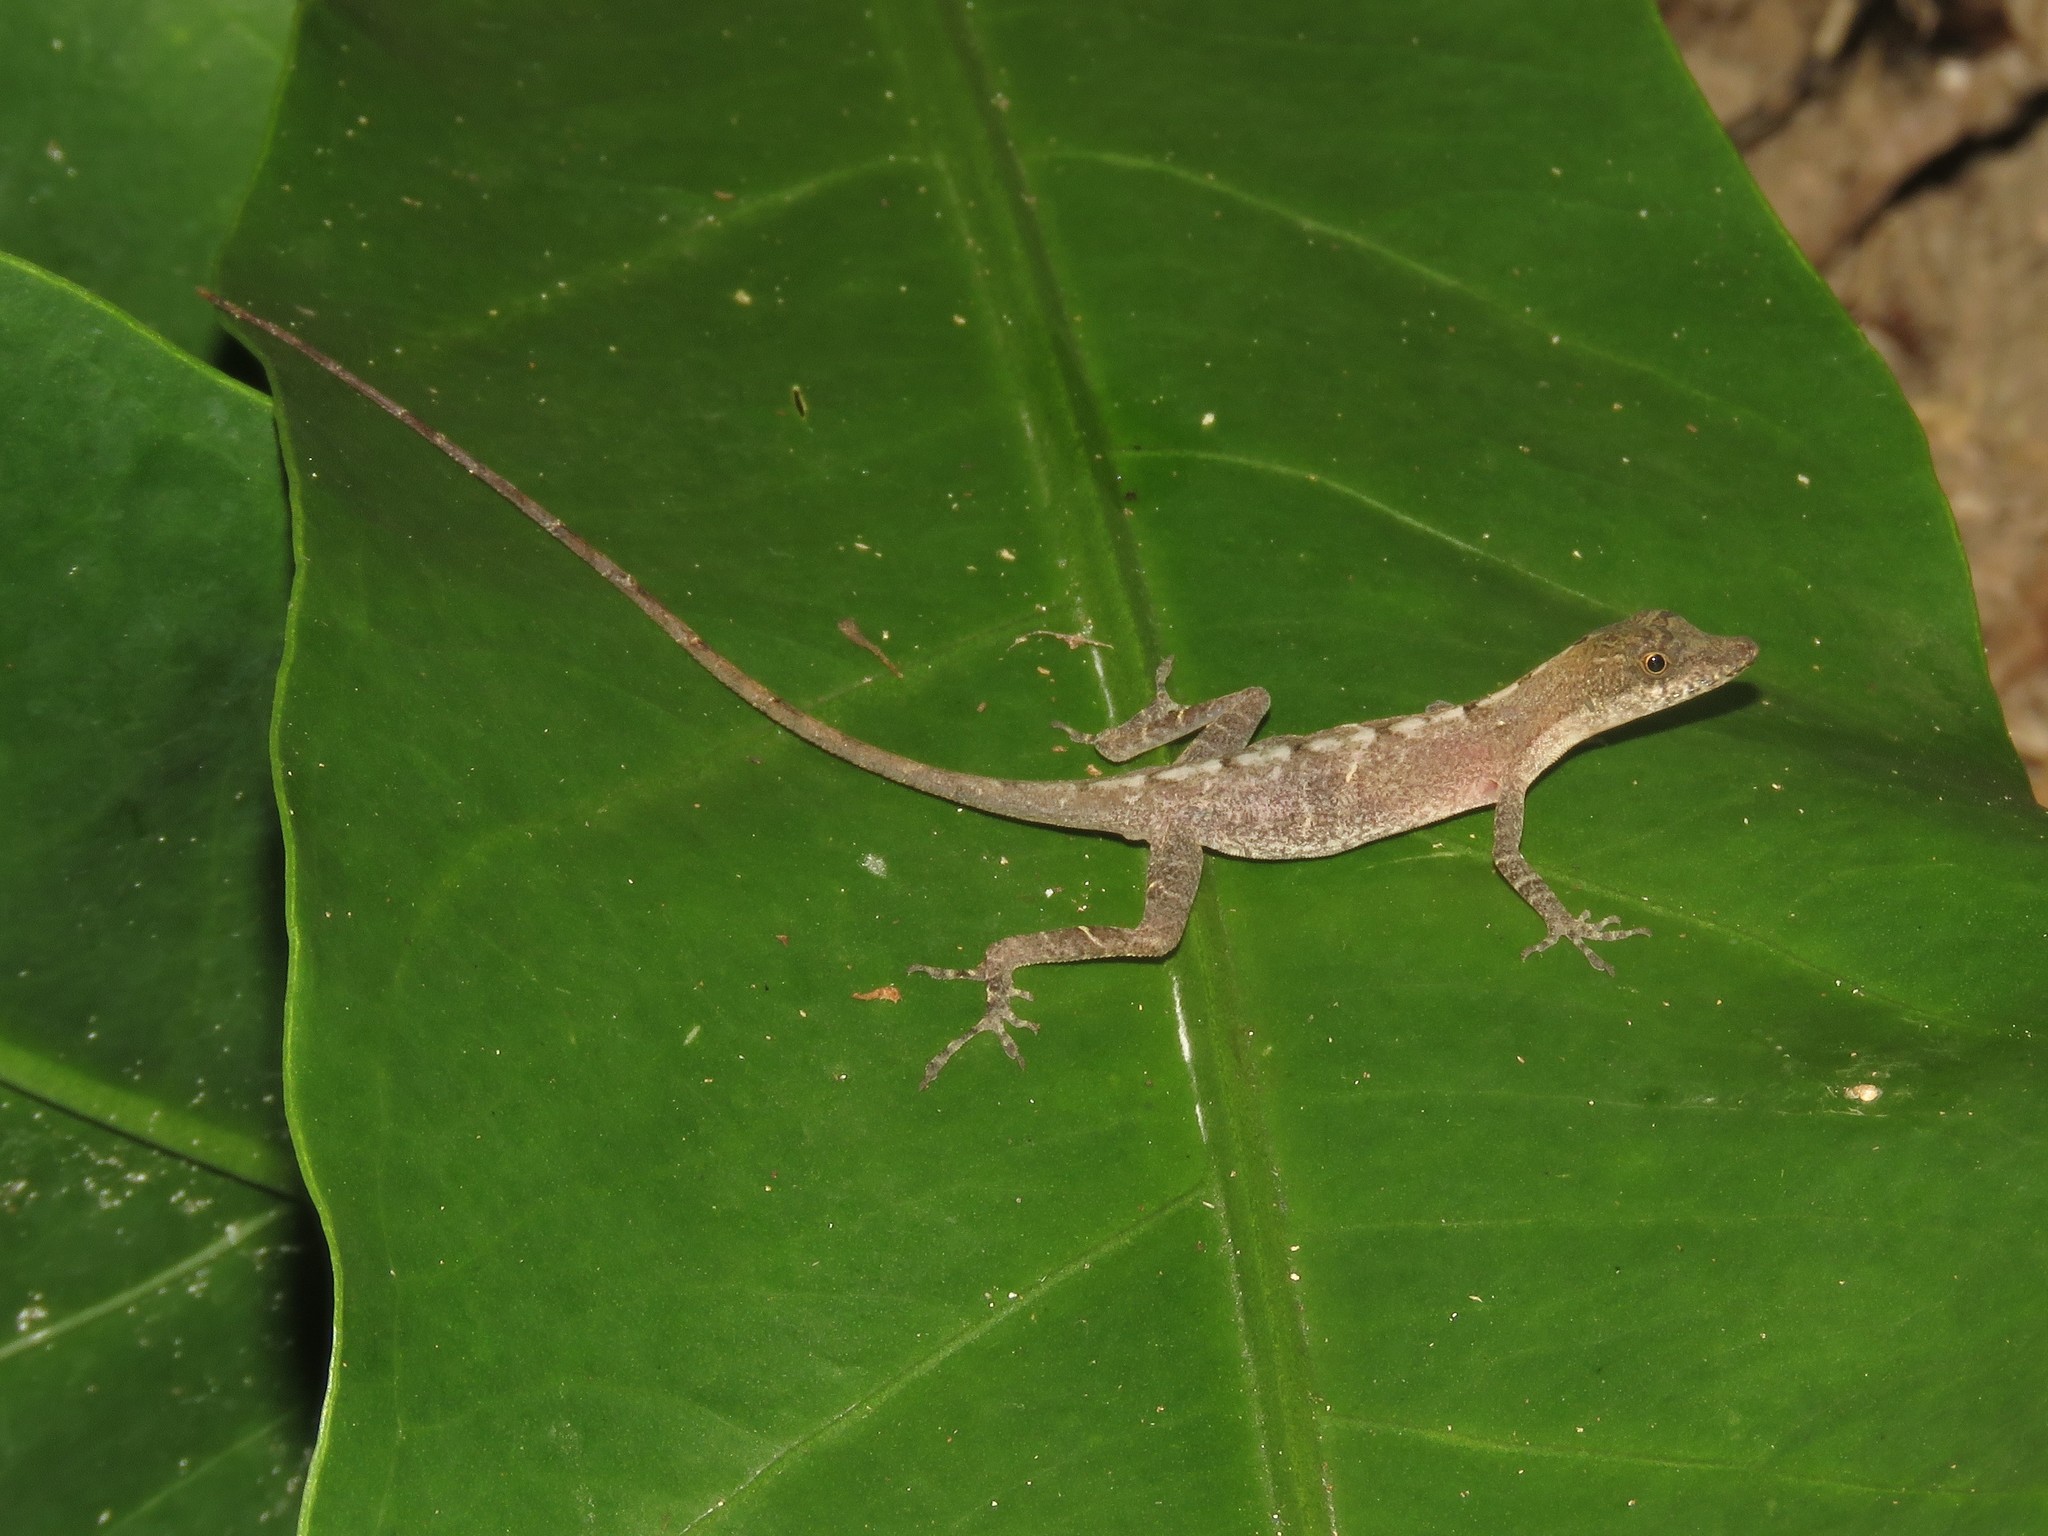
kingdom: Animalia
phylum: Chordata
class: Squamata
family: Dactyloidae
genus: Anolis
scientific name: Anolis rodriguezii
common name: Middle american smooth anole
